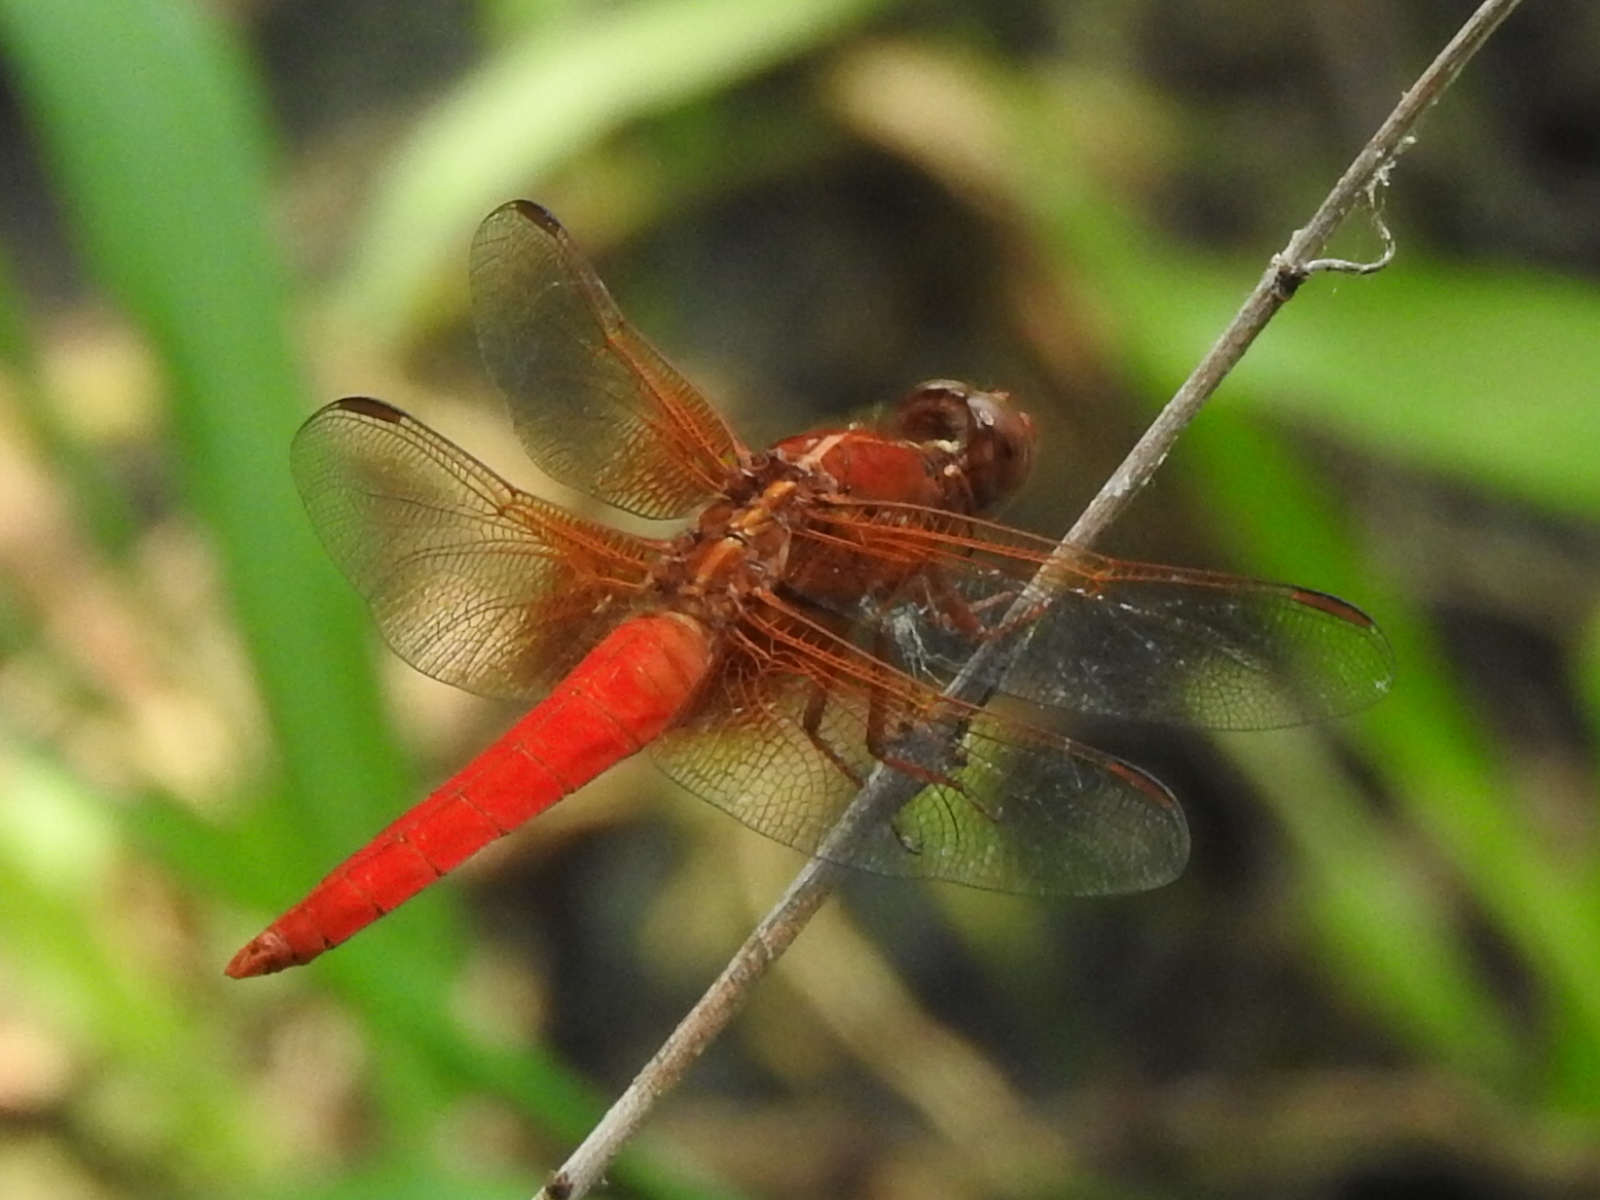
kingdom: Animalia
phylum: Arthropoda
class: Insecta
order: Odonata
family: Libellulidae
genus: Libellula
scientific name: Libellula croceipennis
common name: Neon skimmer
